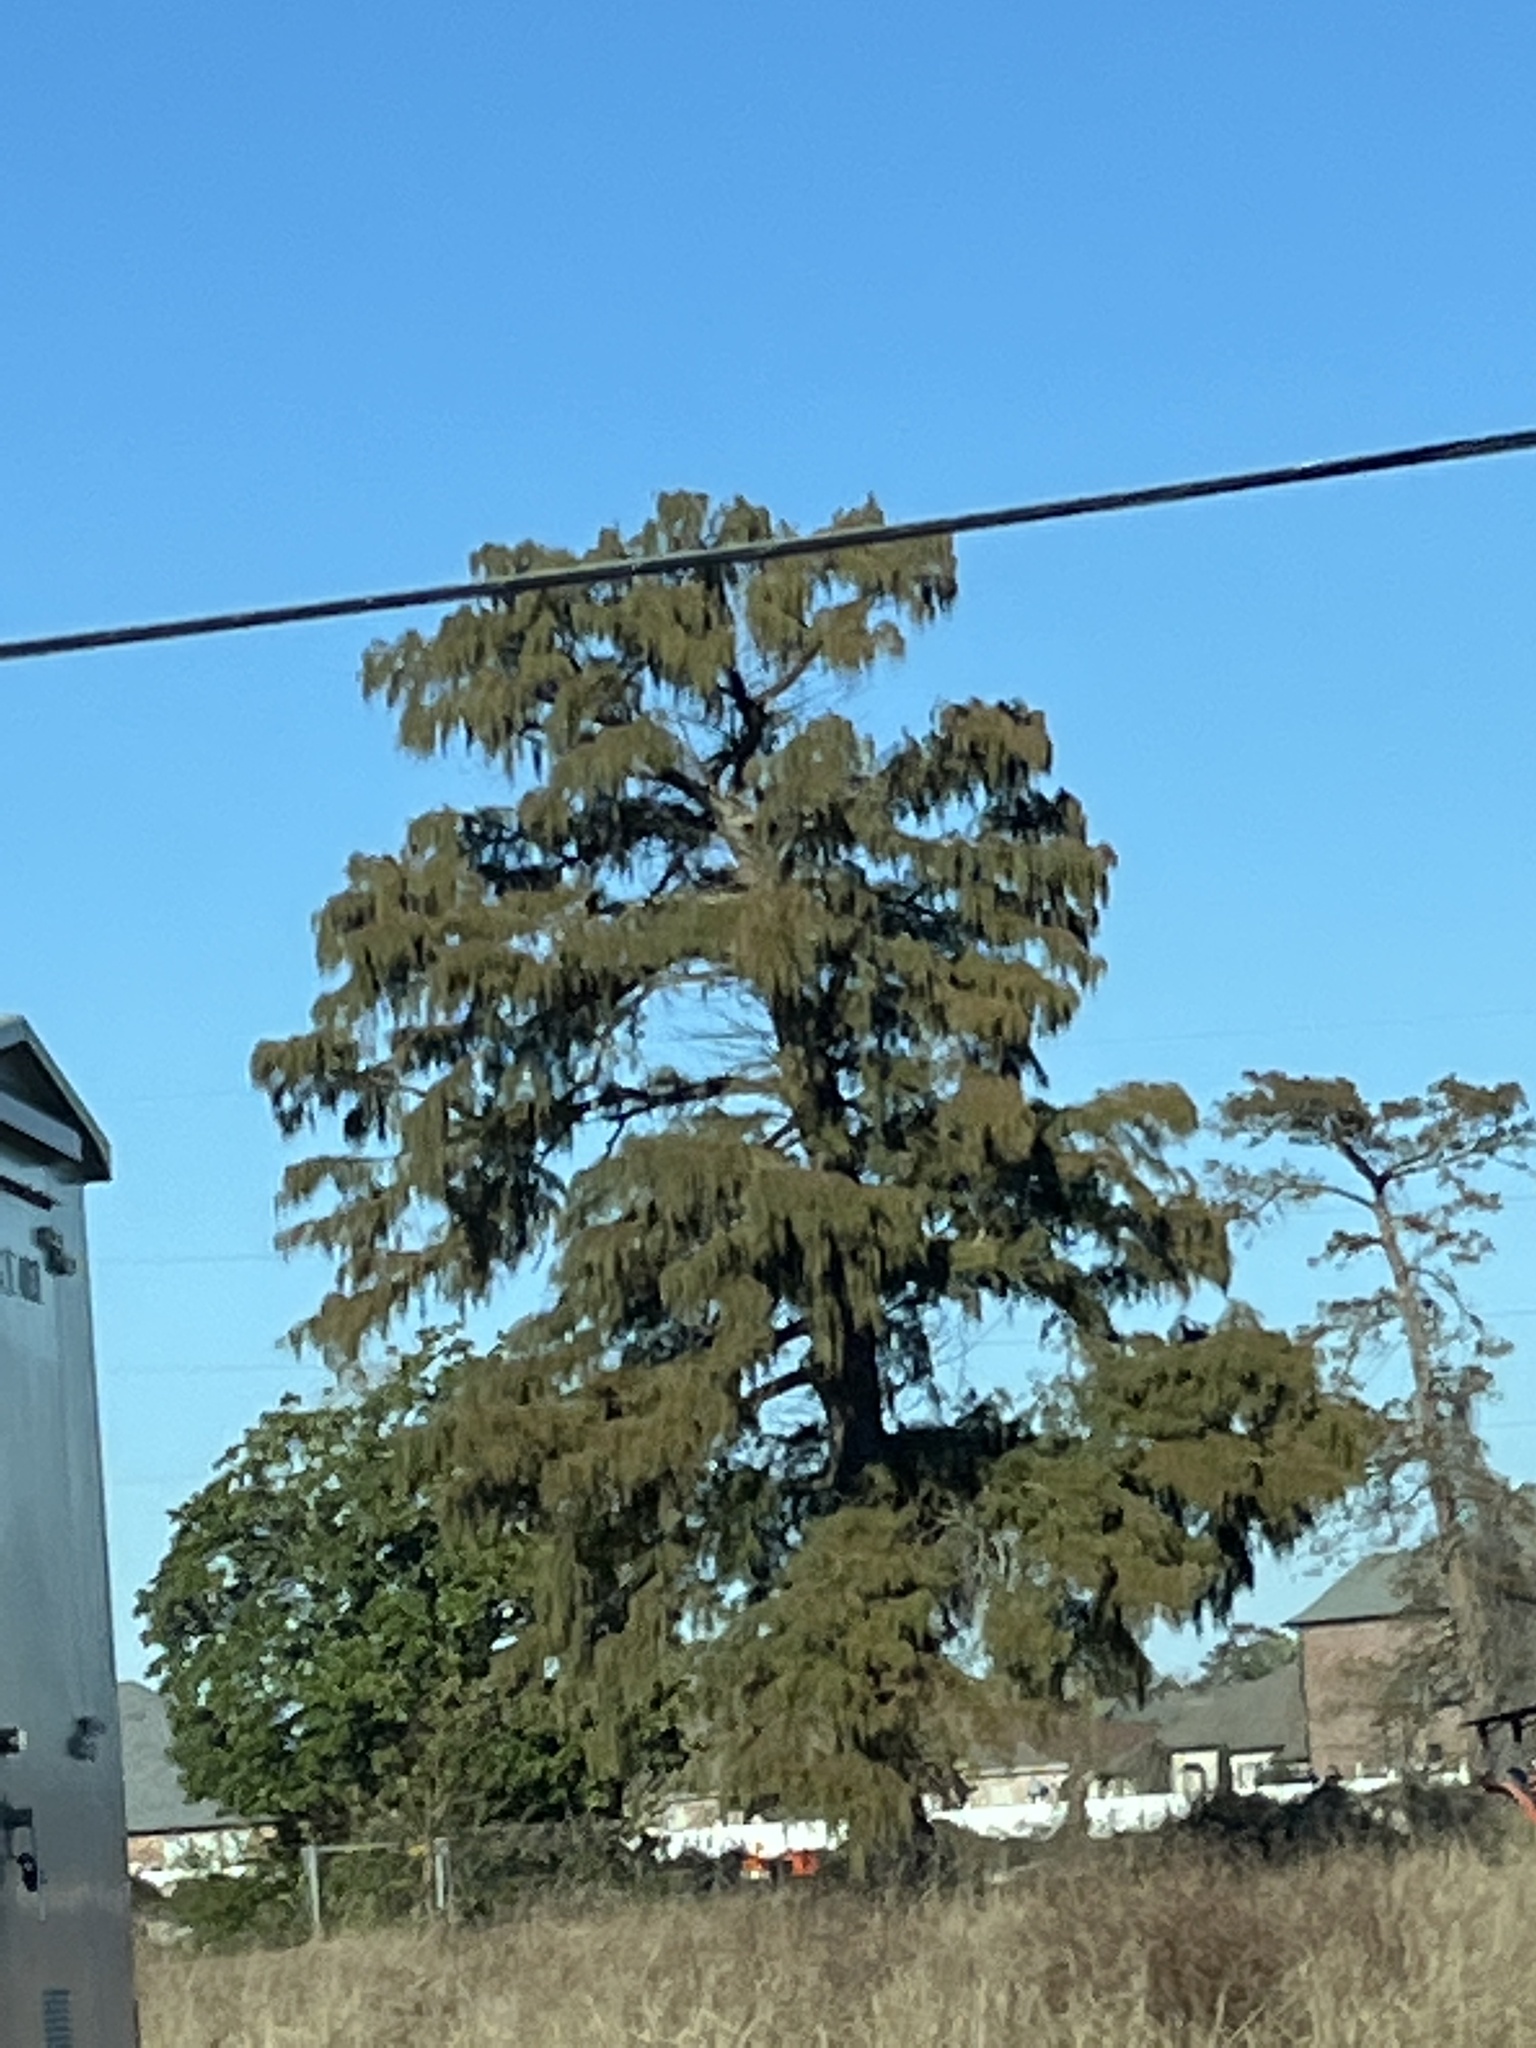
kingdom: Plantae
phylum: Tracheophyta
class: Pinopsida
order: Pinales
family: Cupressaceae
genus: Taxodium
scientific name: Taxodium distichum
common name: Bald cypress
